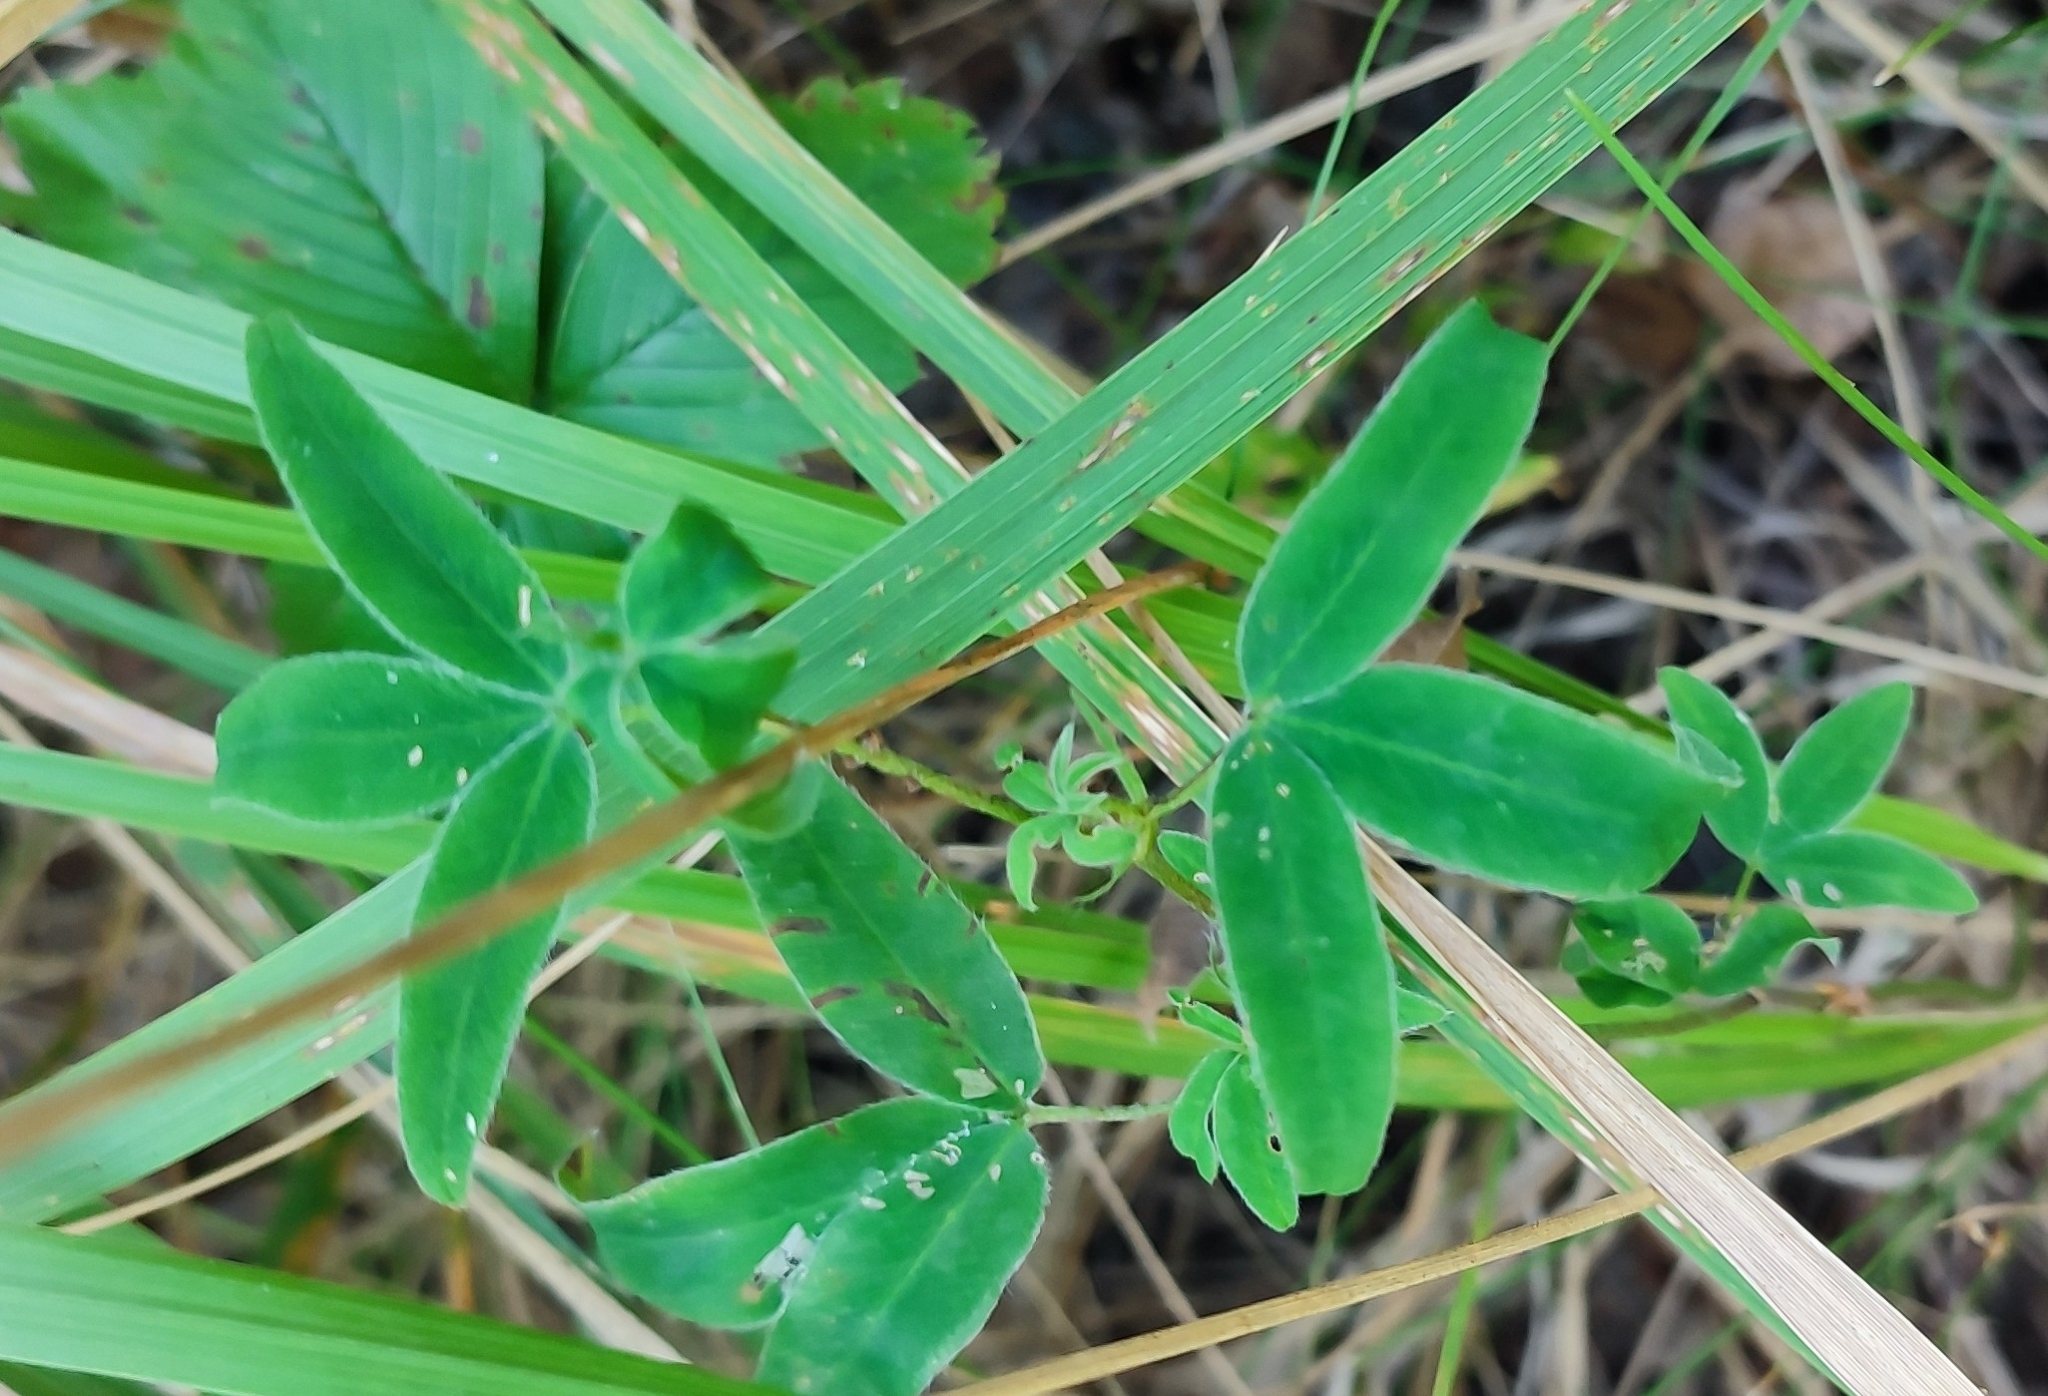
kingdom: Plantae
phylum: Tracheophyta
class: Magnoliopsida
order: Fabales
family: Fabaceae
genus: Trifolium
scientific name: Trifolium medium
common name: Zigzag clover
